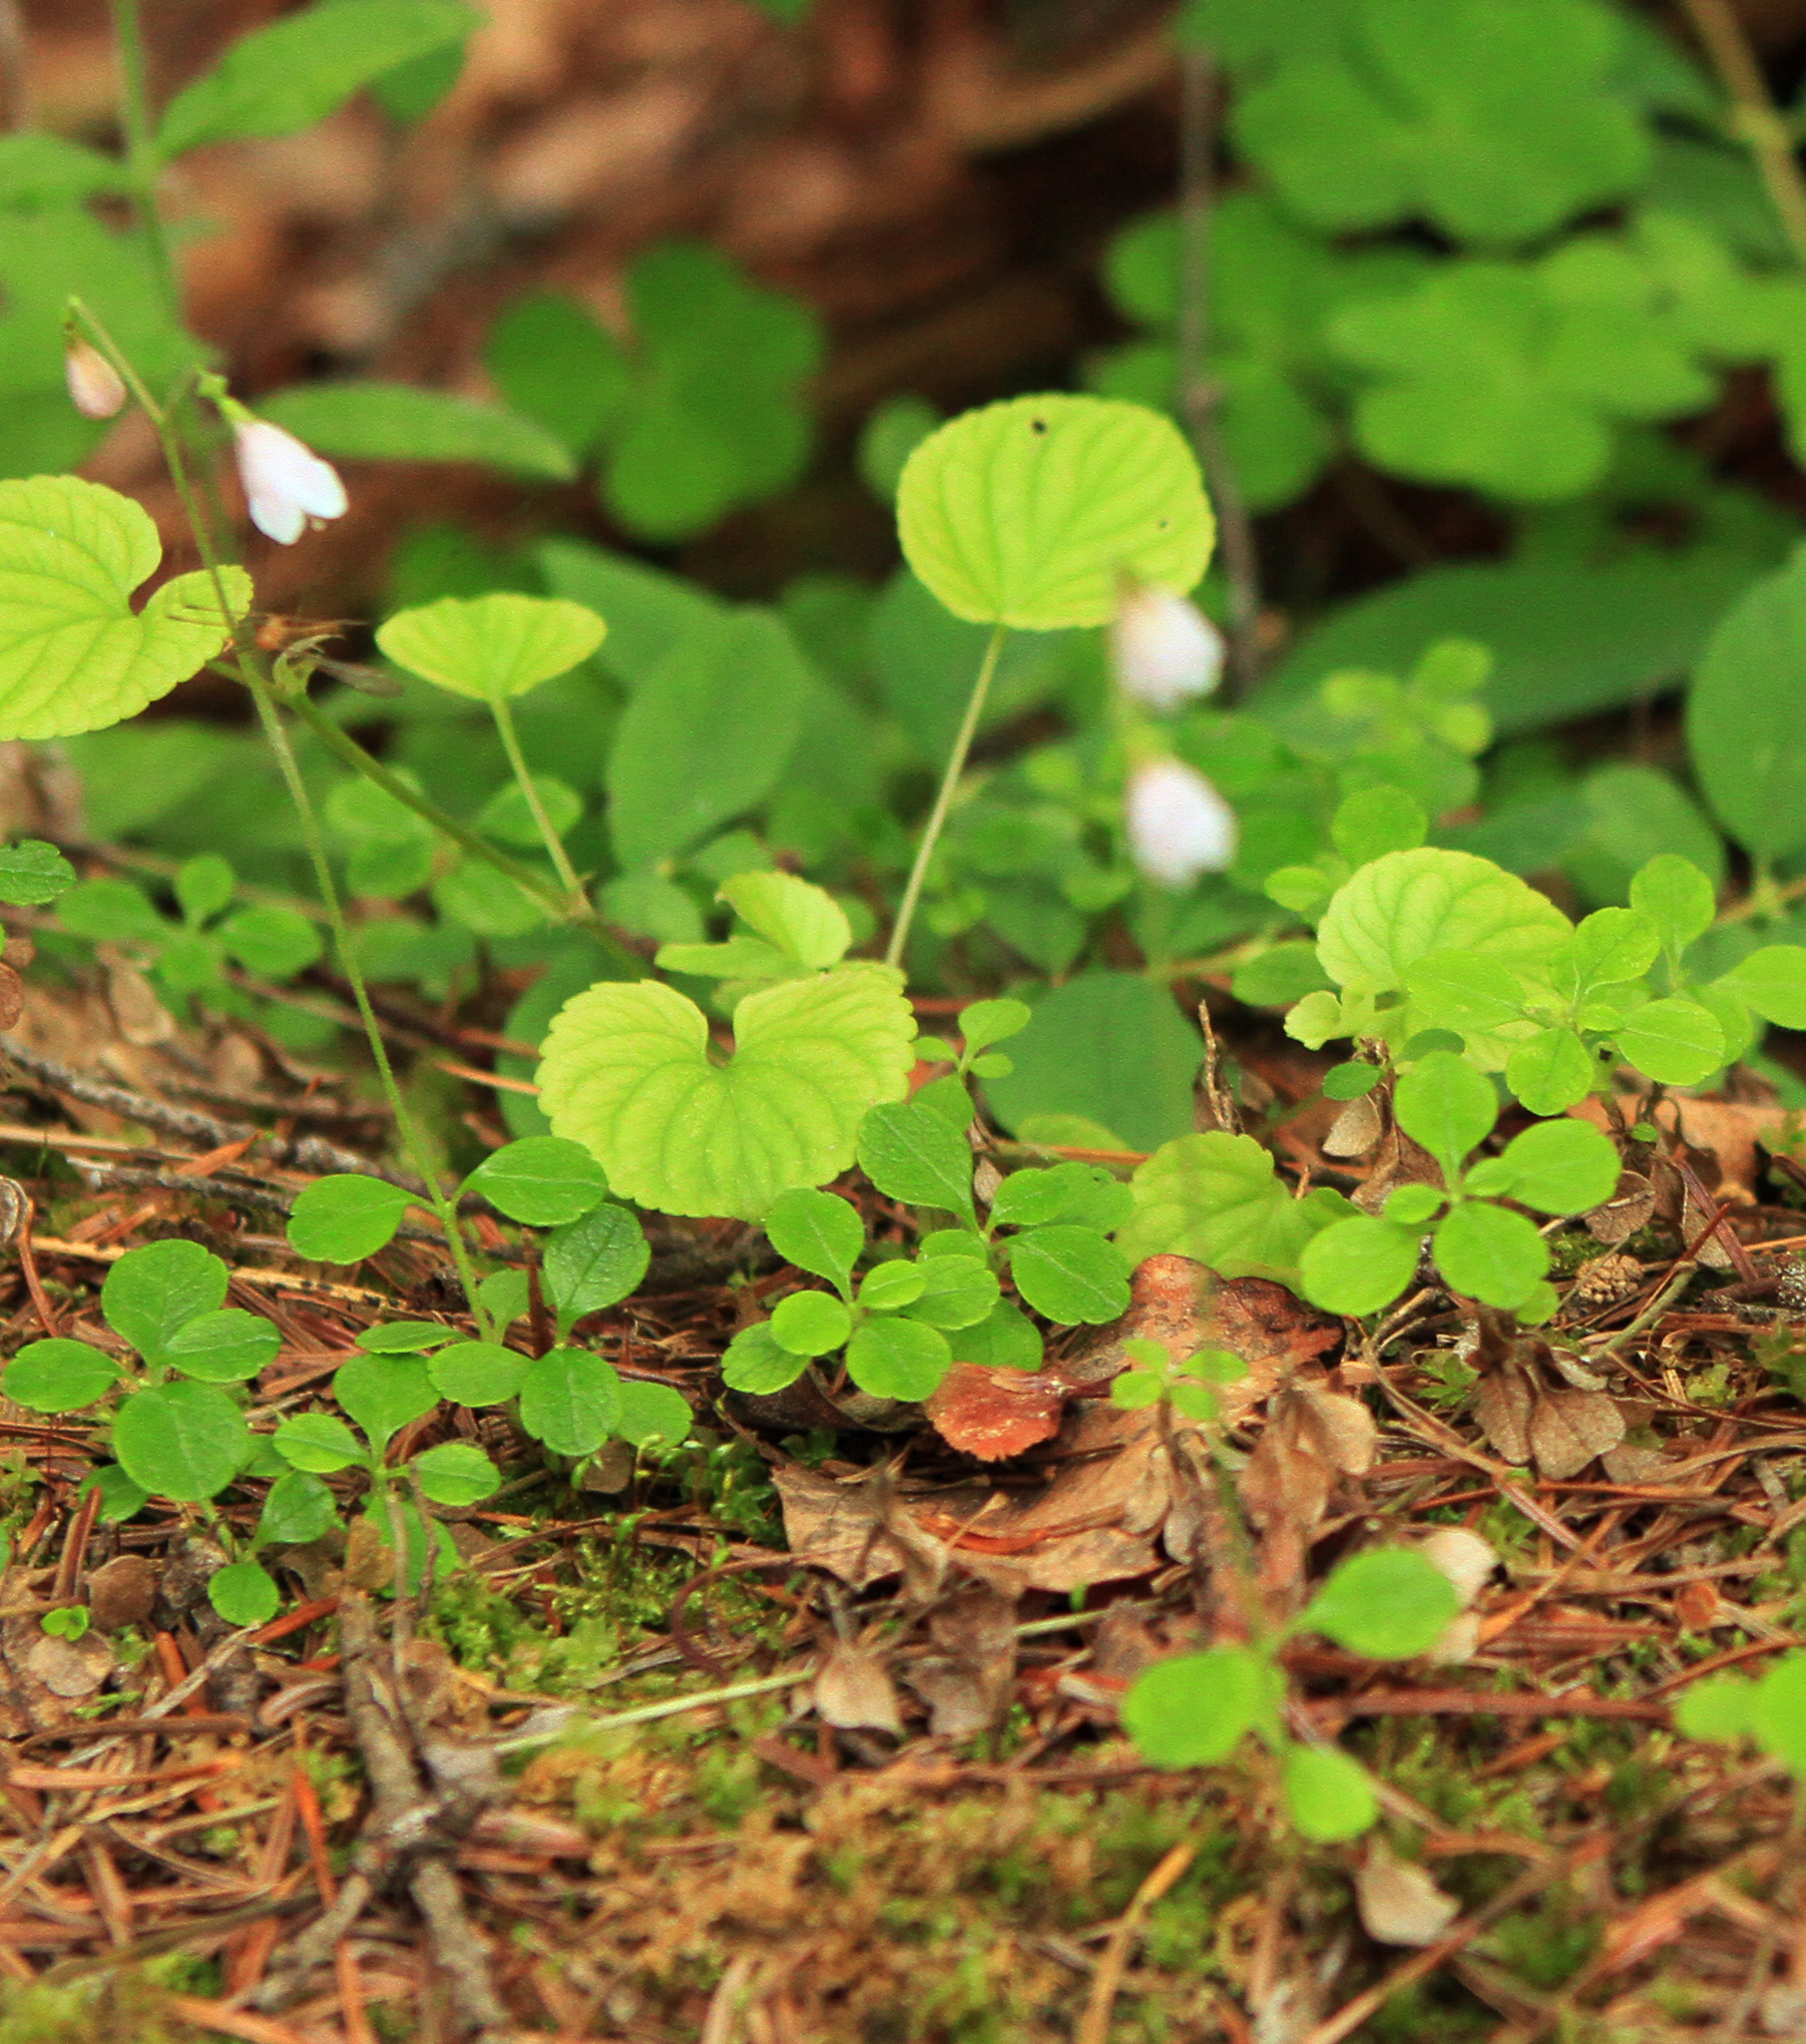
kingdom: Plantae
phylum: Tracheophyta
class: Magnoliopsida
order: Malpighiales
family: Violaceae
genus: Viola
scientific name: Viola sacchalinensis
